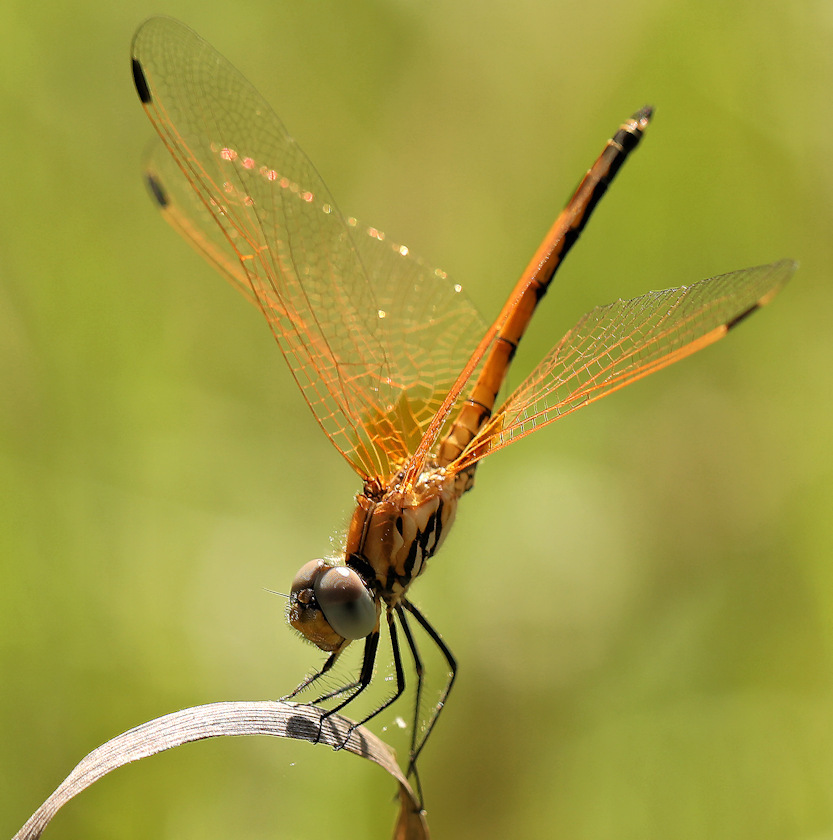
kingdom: Animalia
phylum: Arthropoda
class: Insecta
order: Odonata
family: Libellulidae
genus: Trithemis
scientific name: Trithemis arteriosa
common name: Red-veined dropwing
